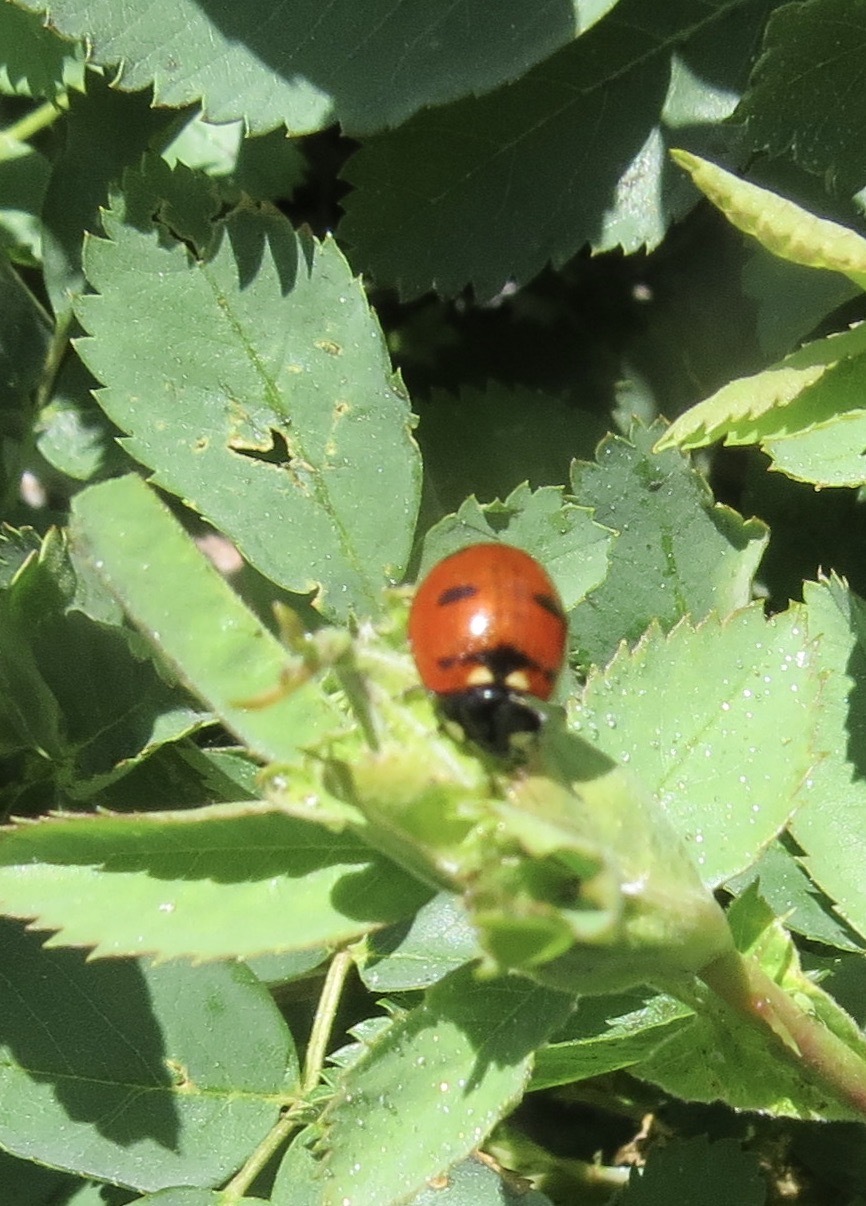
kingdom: Animalia
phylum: Arthropoda
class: Insecta
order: Coleoptera
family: Coccinellidae
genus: Coccinella
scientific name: Coccinella transversoguttata
